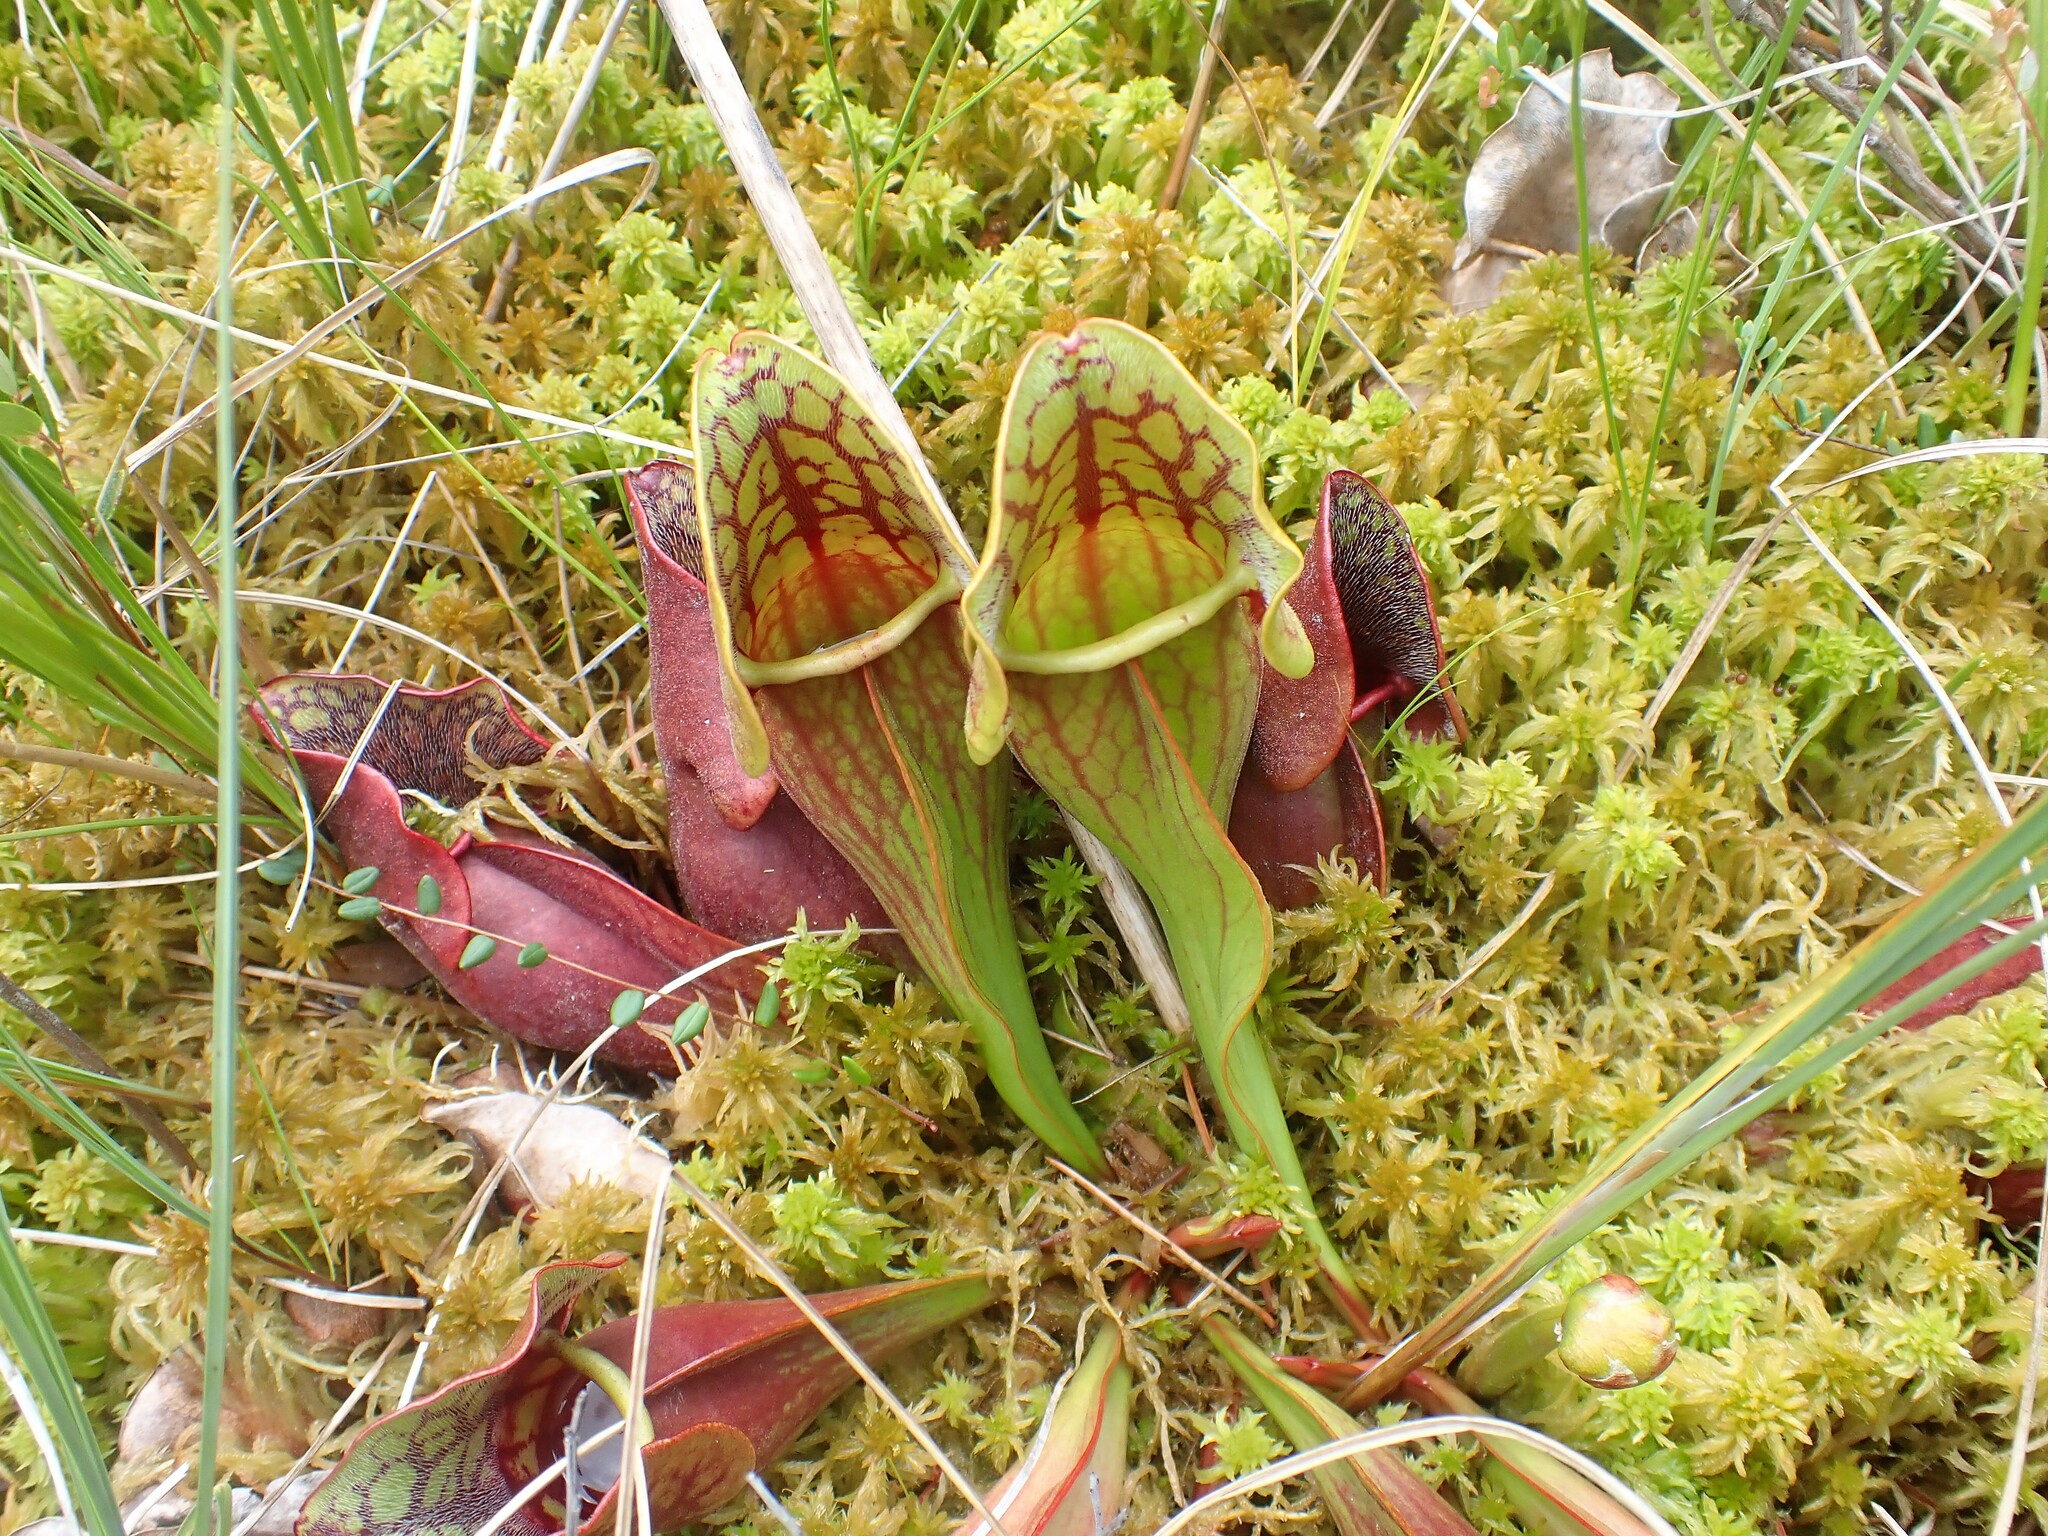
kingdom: Plantae
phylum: Tracheophyta
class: Magnoliopsida
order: Ericales
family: Sarraceniaceae
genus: Sarracenia
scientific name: Sarracenia purpurea
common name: Pitcherplant
